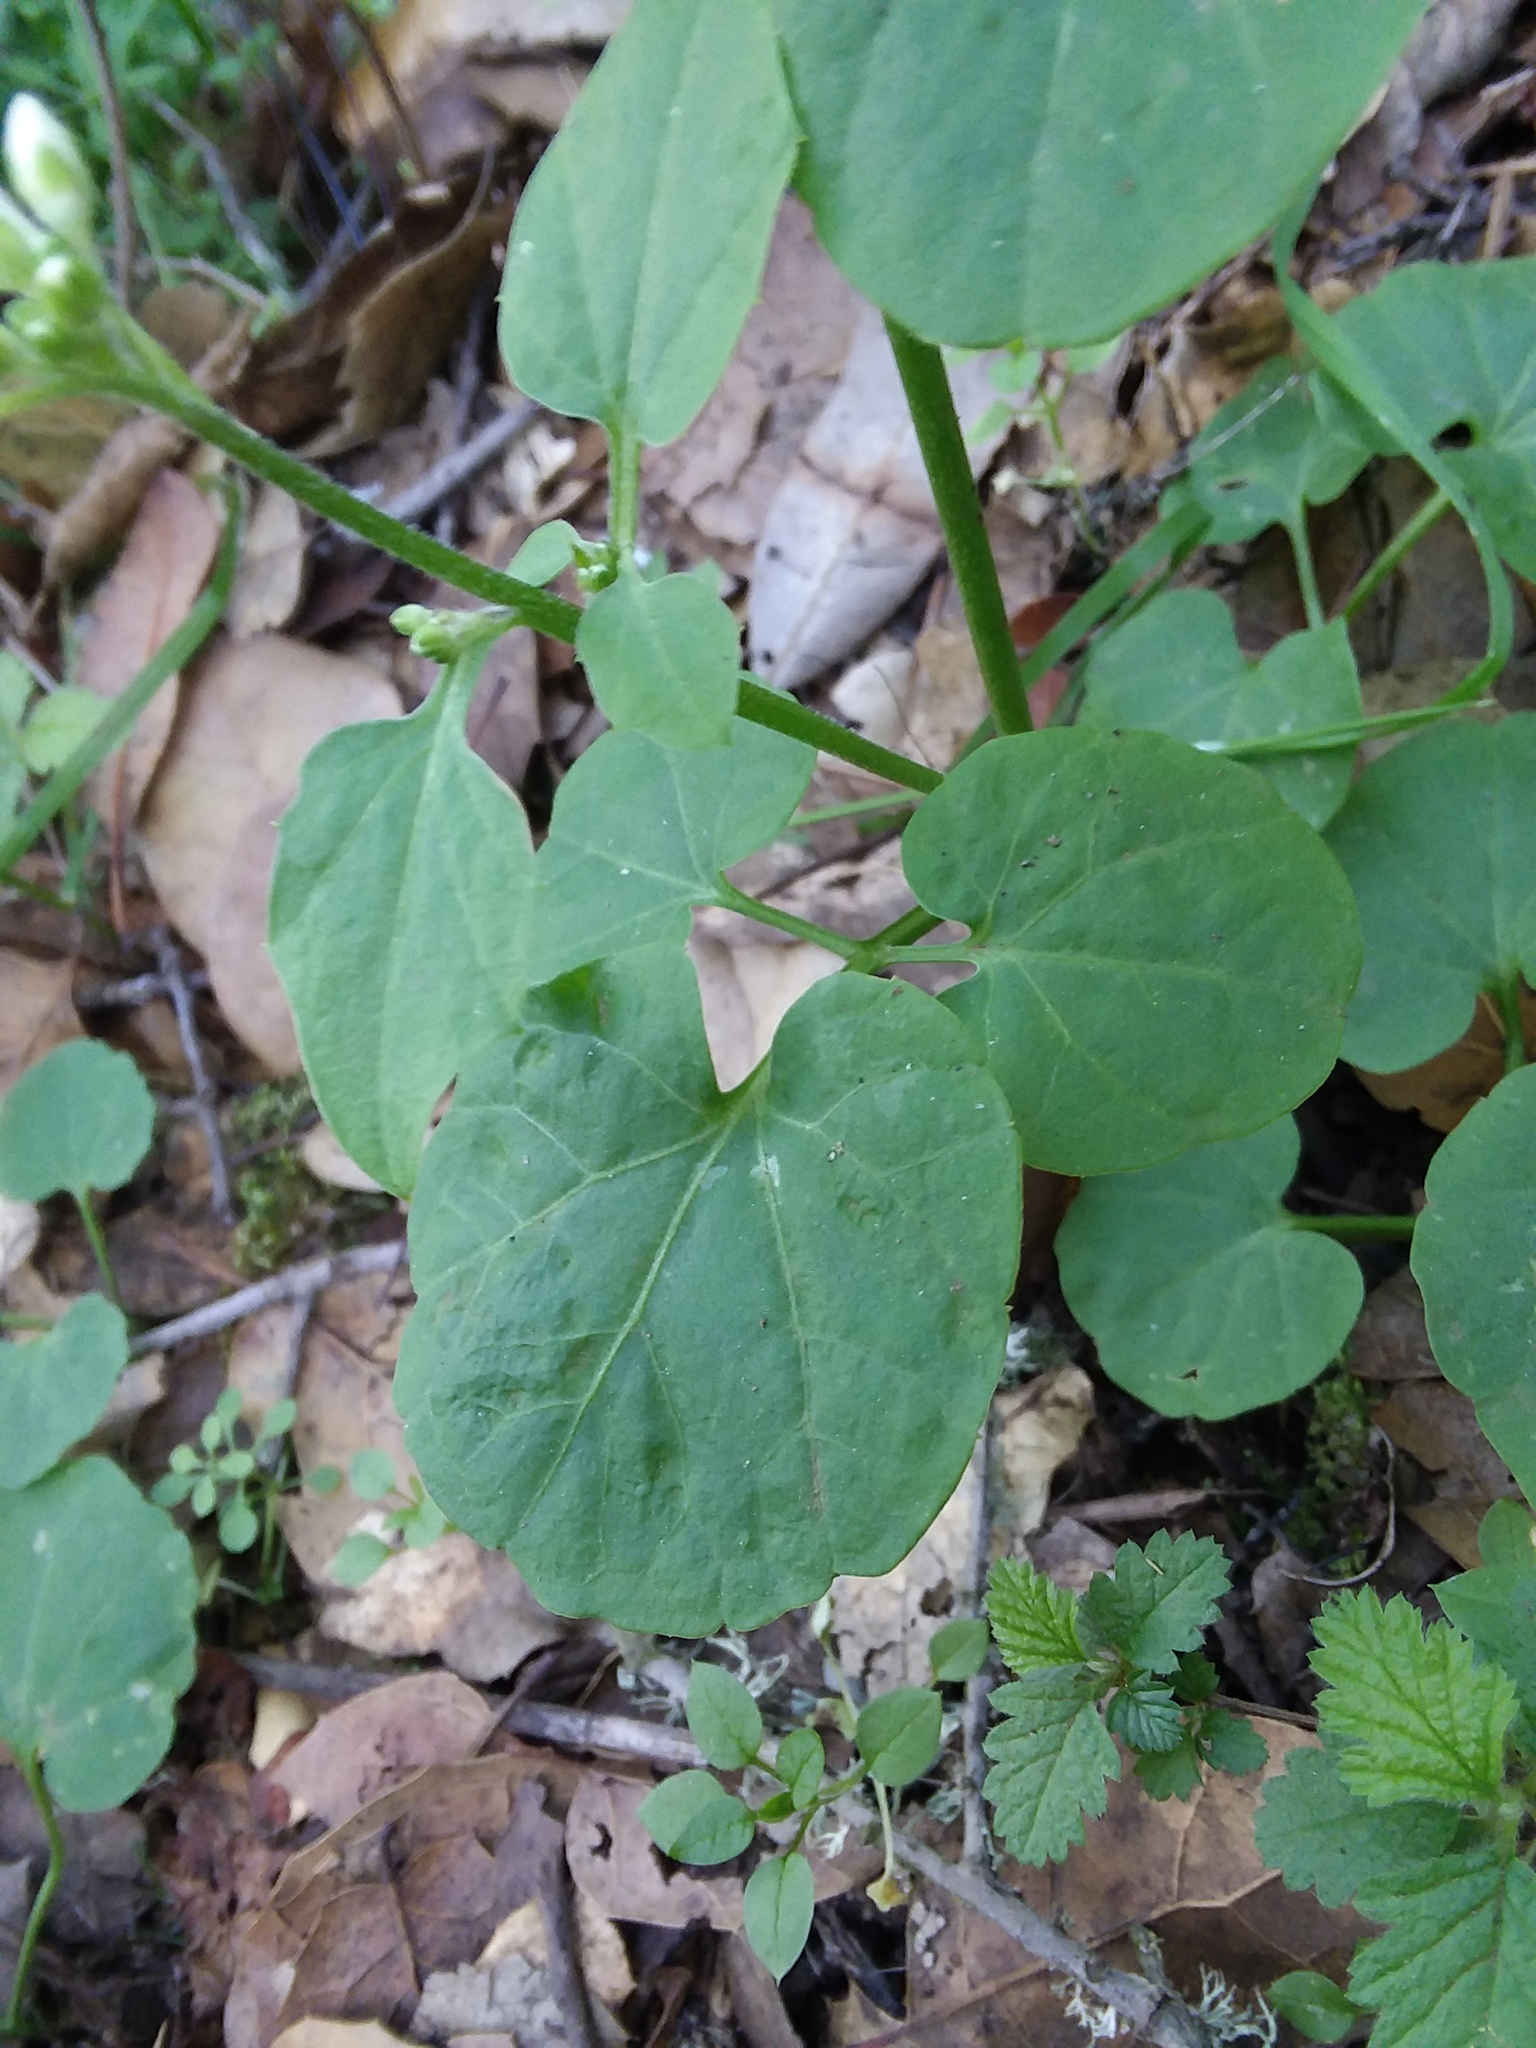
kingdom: Plantae
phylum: Tracheophyta
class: Magnoliopsida
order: Brassicales
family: Brassicaceae
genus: Cardamine
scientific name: Cardamine californica
